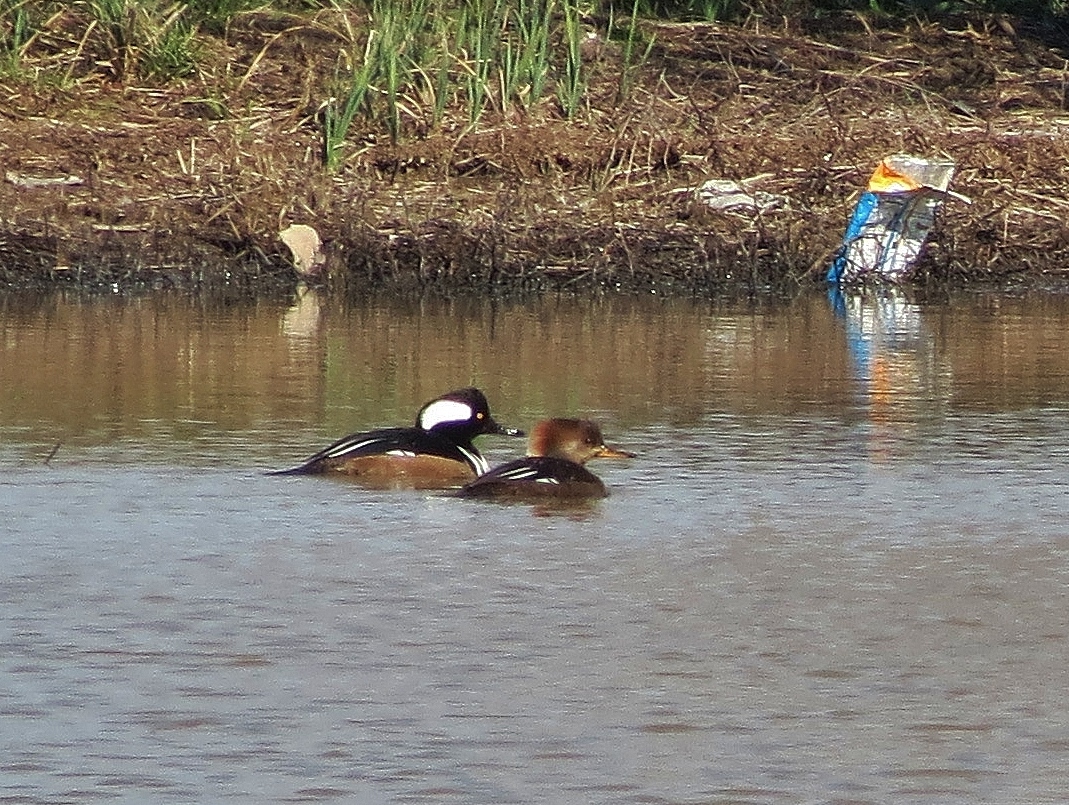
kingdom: Animalia
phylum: Chordata
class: Aves
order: Anseriformes
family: Anatidae
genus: Lophodytes
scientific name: Lophodytes cucullatus
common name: Hooded merganser
